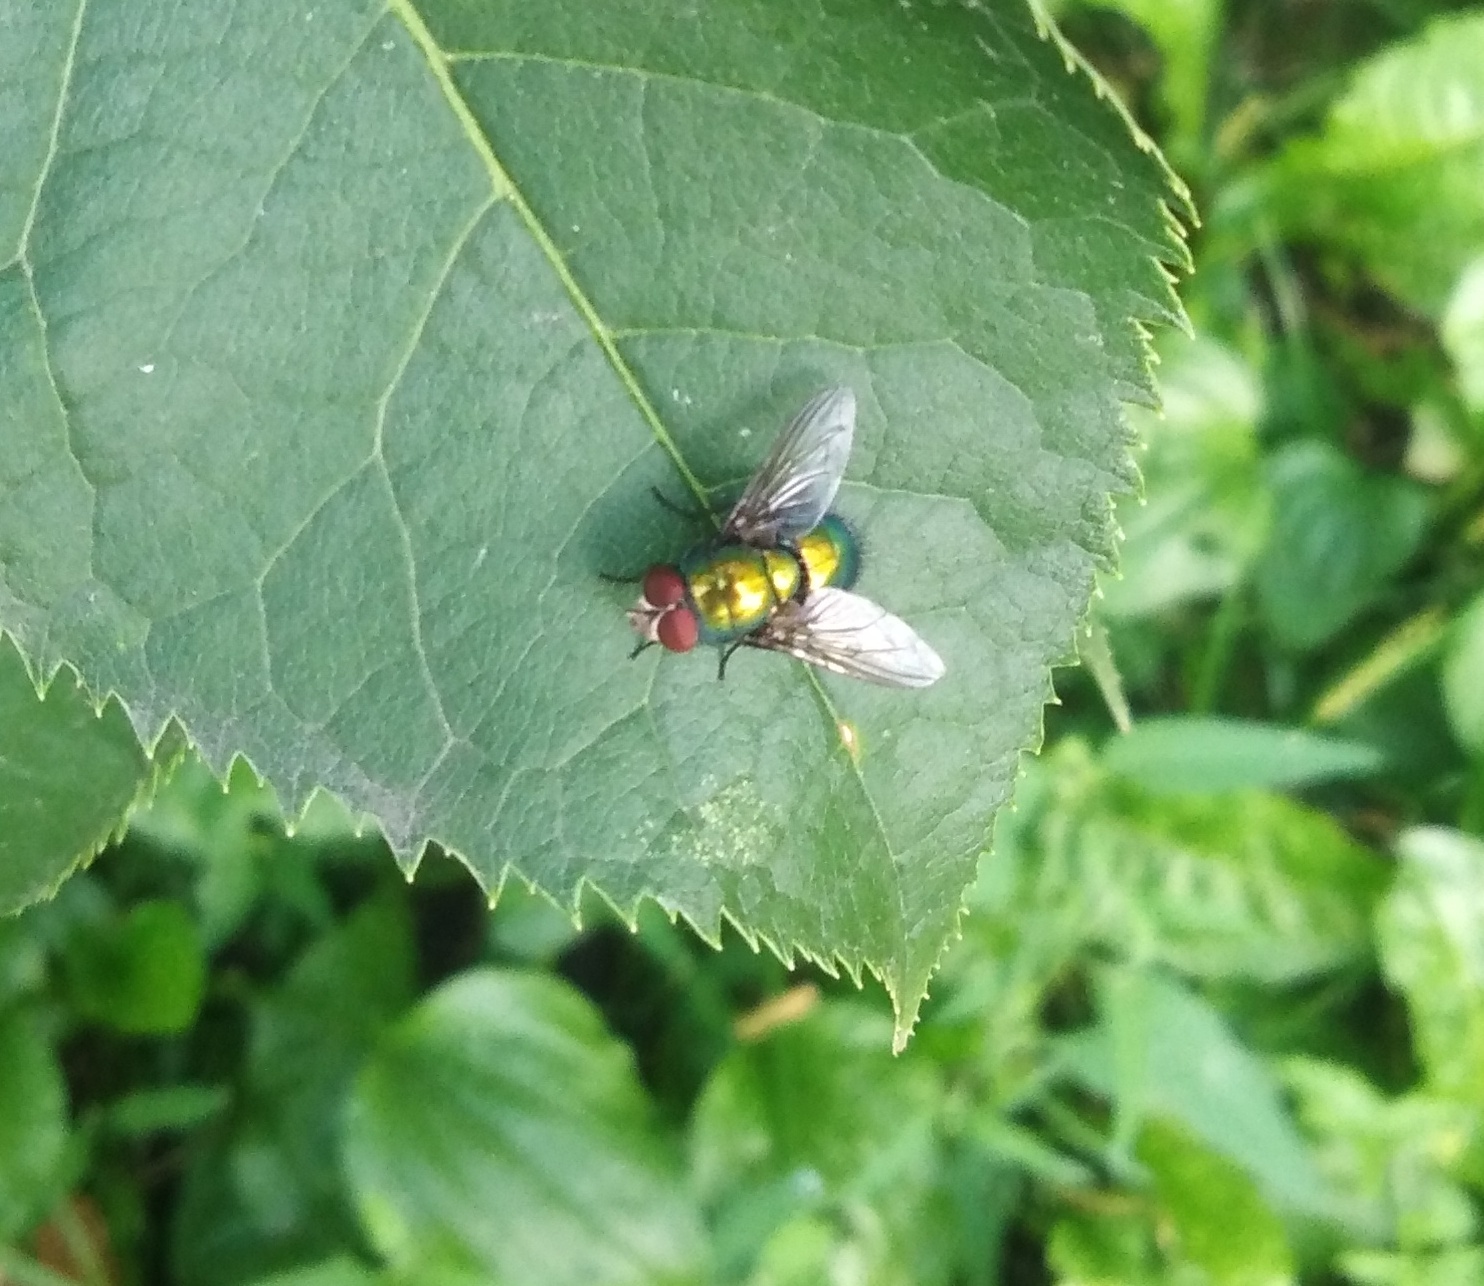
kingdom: Animalia
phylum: Arthropoda
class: Insecta
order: Diptera
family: Calliphoridae
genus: Lucilia
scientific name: Lucilia
